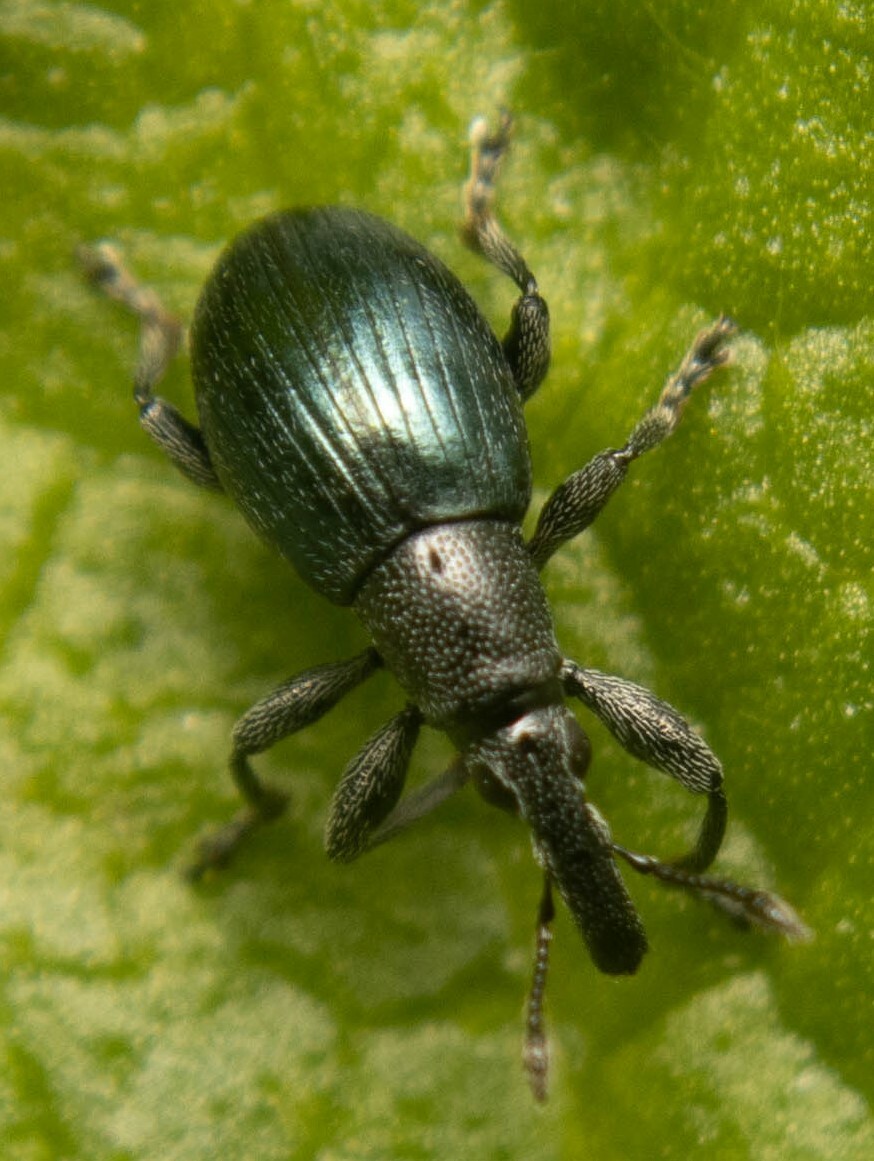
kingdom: Animalia
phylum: Arthropoda
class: Insecta
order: Coleoptera
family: Curculionidae
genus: Sphenomorpha
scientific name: Sphenomorpha aenea
